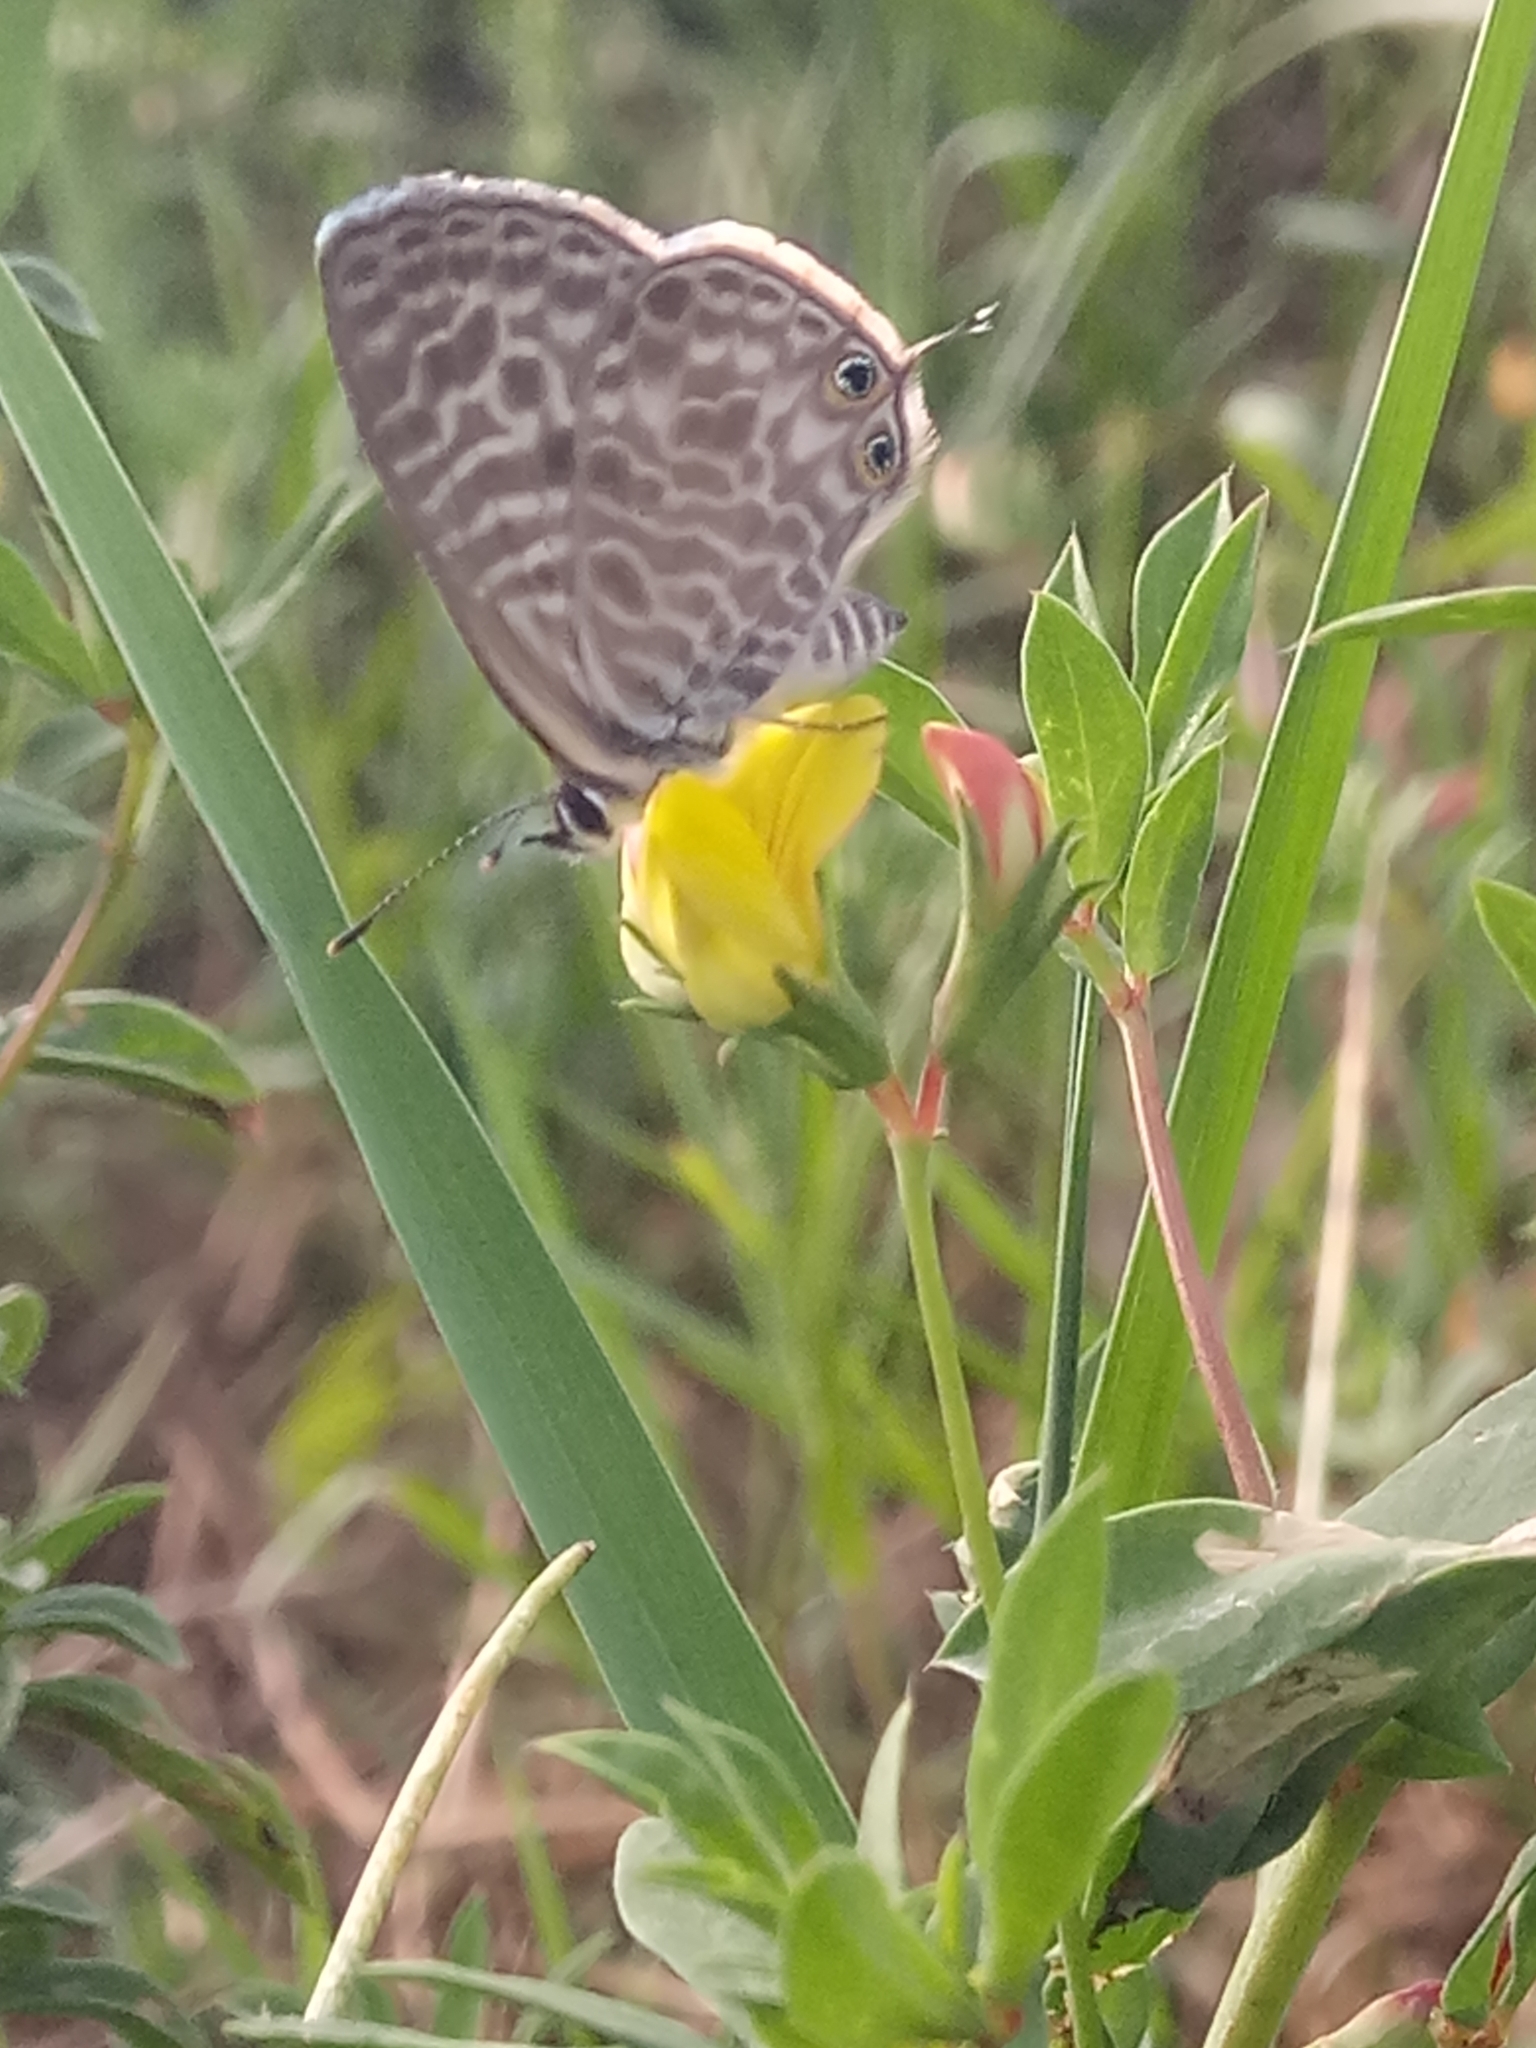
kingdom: Animalia
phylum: Arthropoda
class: Insecta
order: Lepidoptera
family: Lycaenidae
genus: Leptotes
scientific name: Leptotes pirithous
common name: Lang's short-tailed blue
